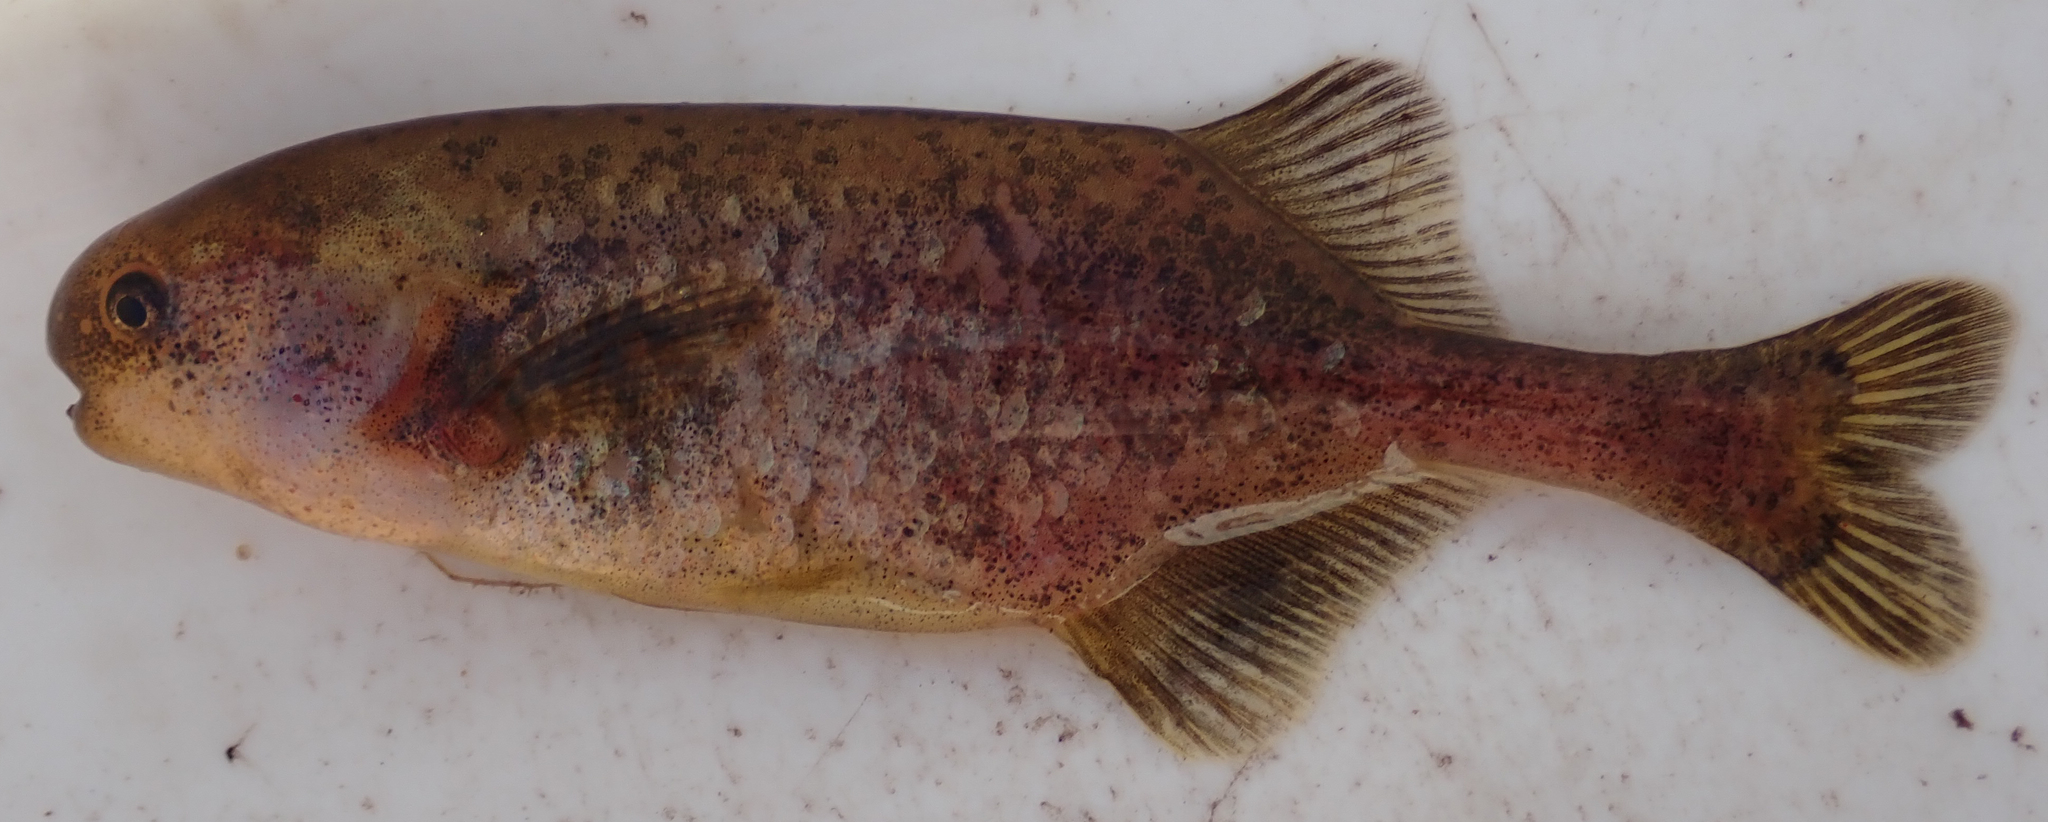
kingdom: Animalia
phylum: Chordata
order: Osteoglossiformes
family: Mormyridae
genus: Pollimyrus
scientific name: Pollimyrus cuandoensis
